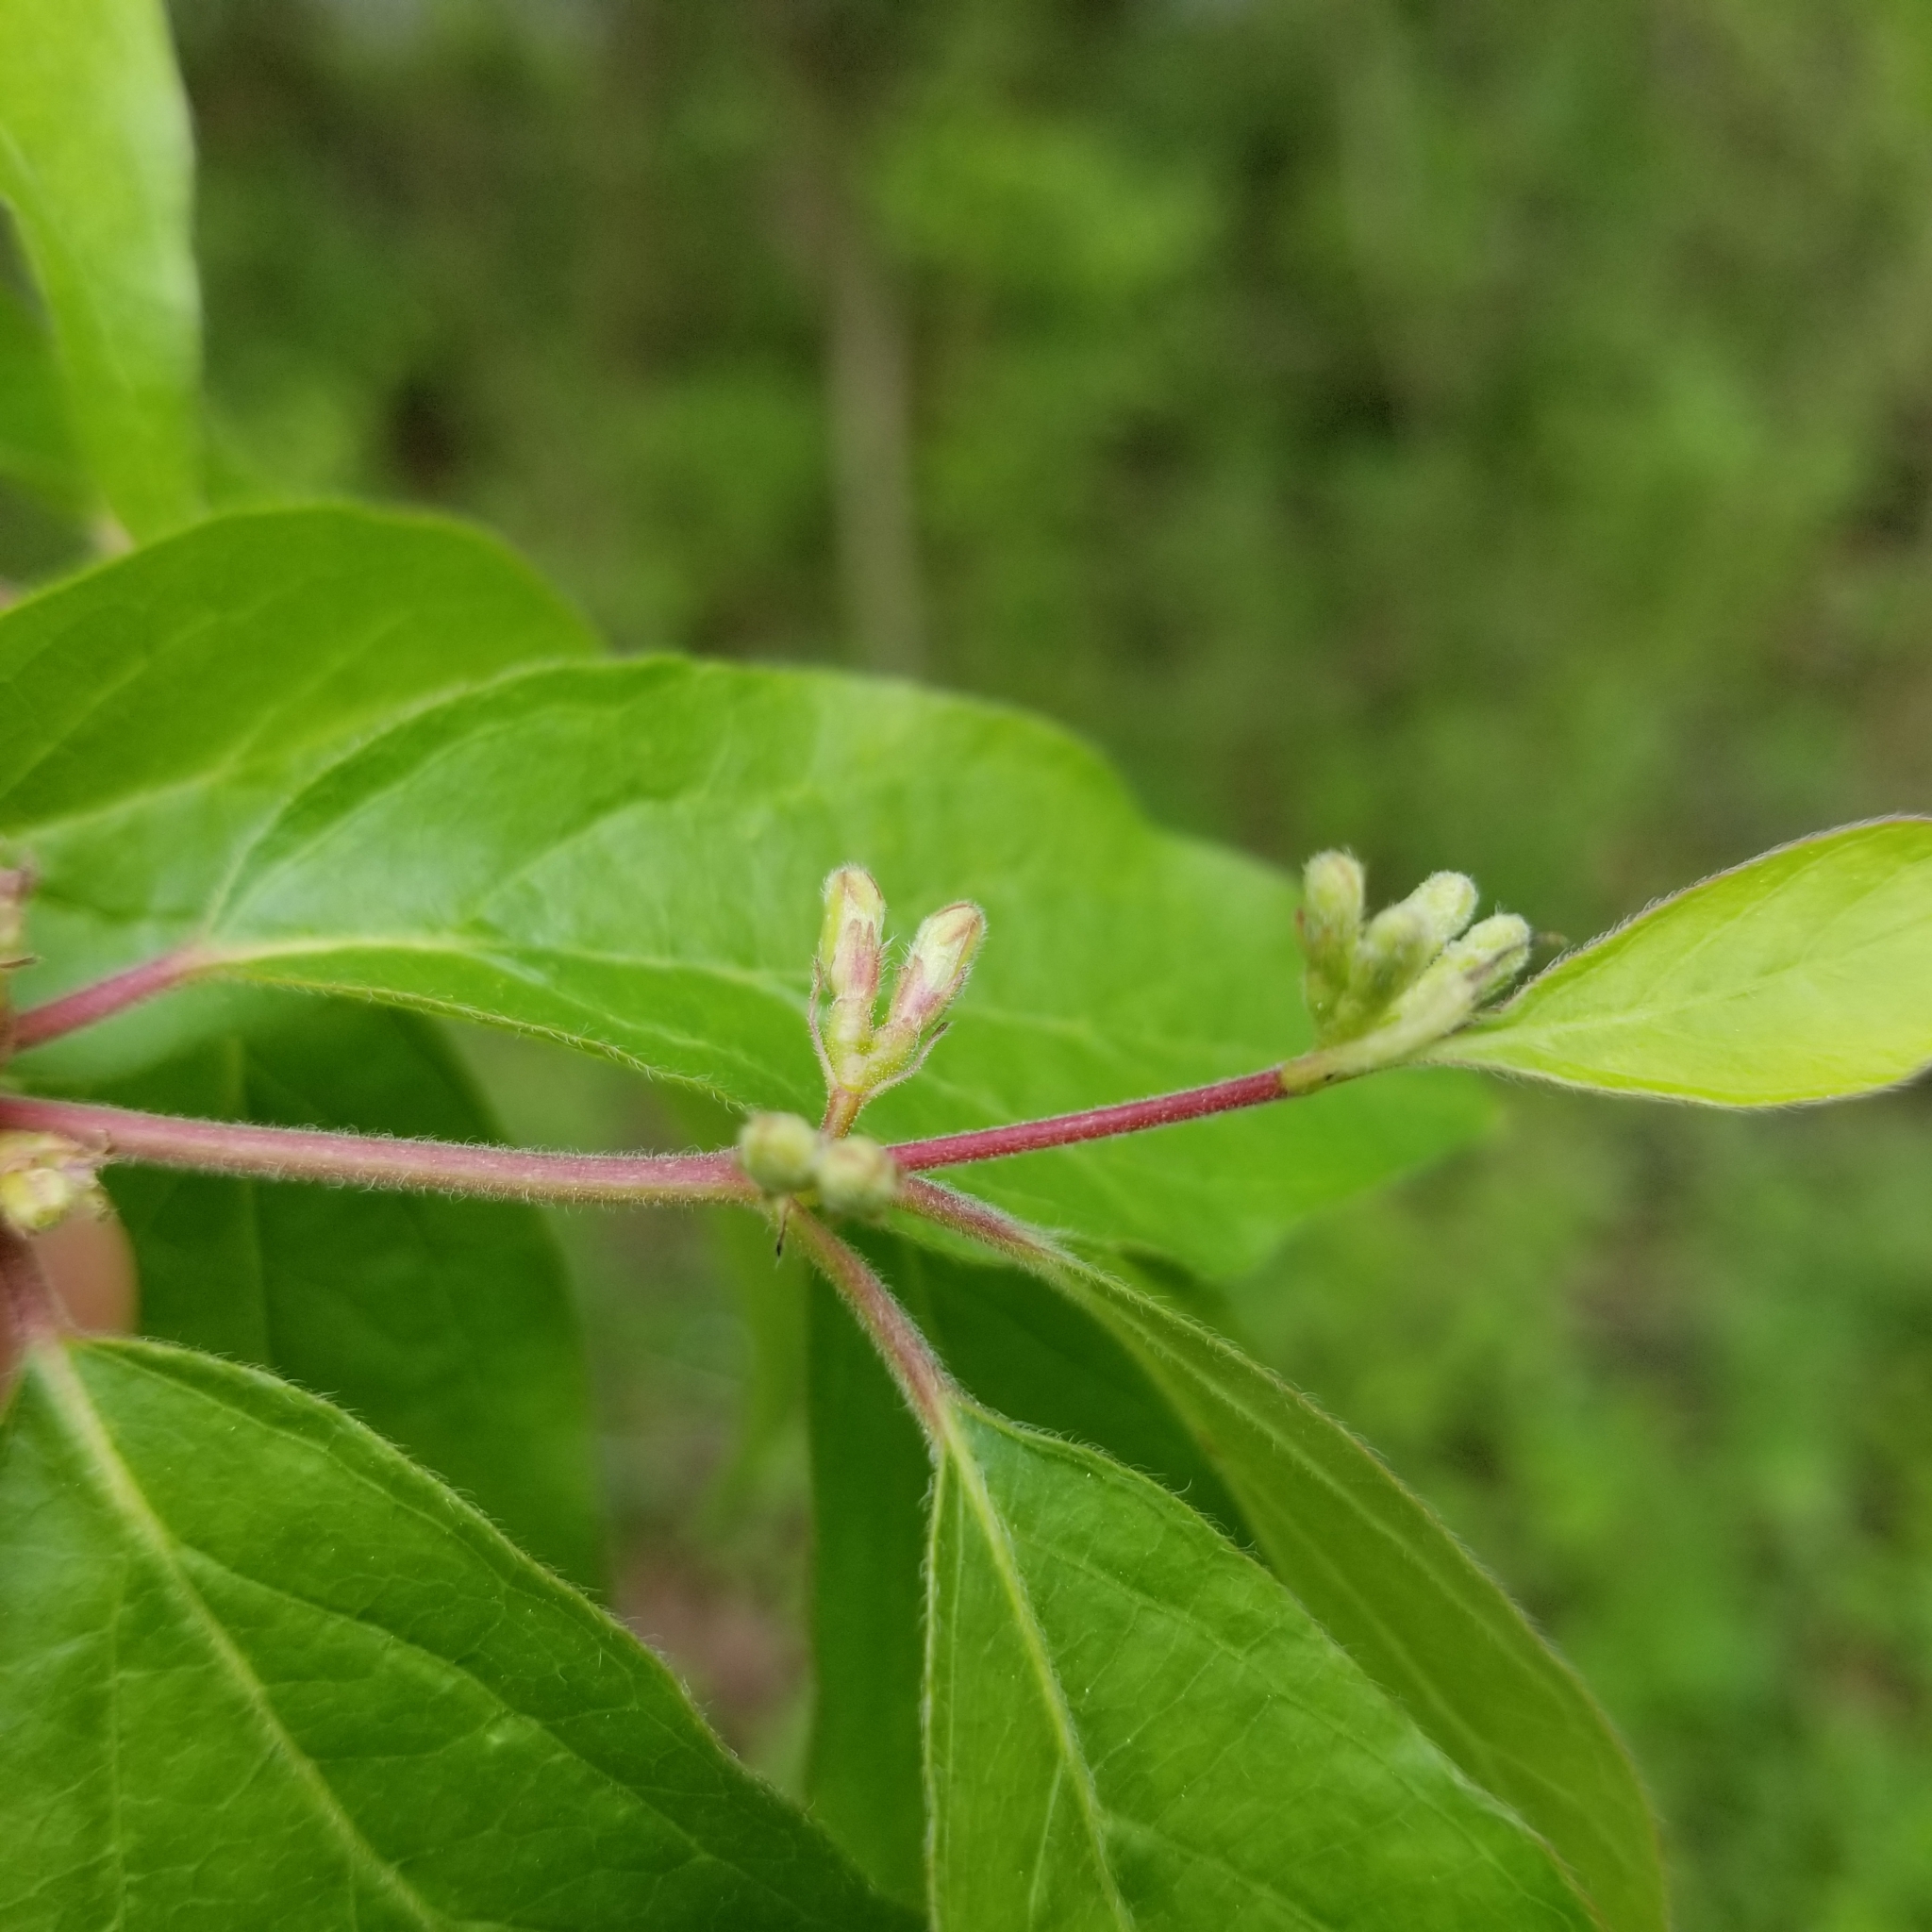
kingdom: Plantae
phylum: Tracheophyta
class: Magnoliopsida
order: Dipsacales
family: Caprifoliaceae
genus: Lonicera
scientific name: Lonicera maackii
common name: Amur honeysuckle
